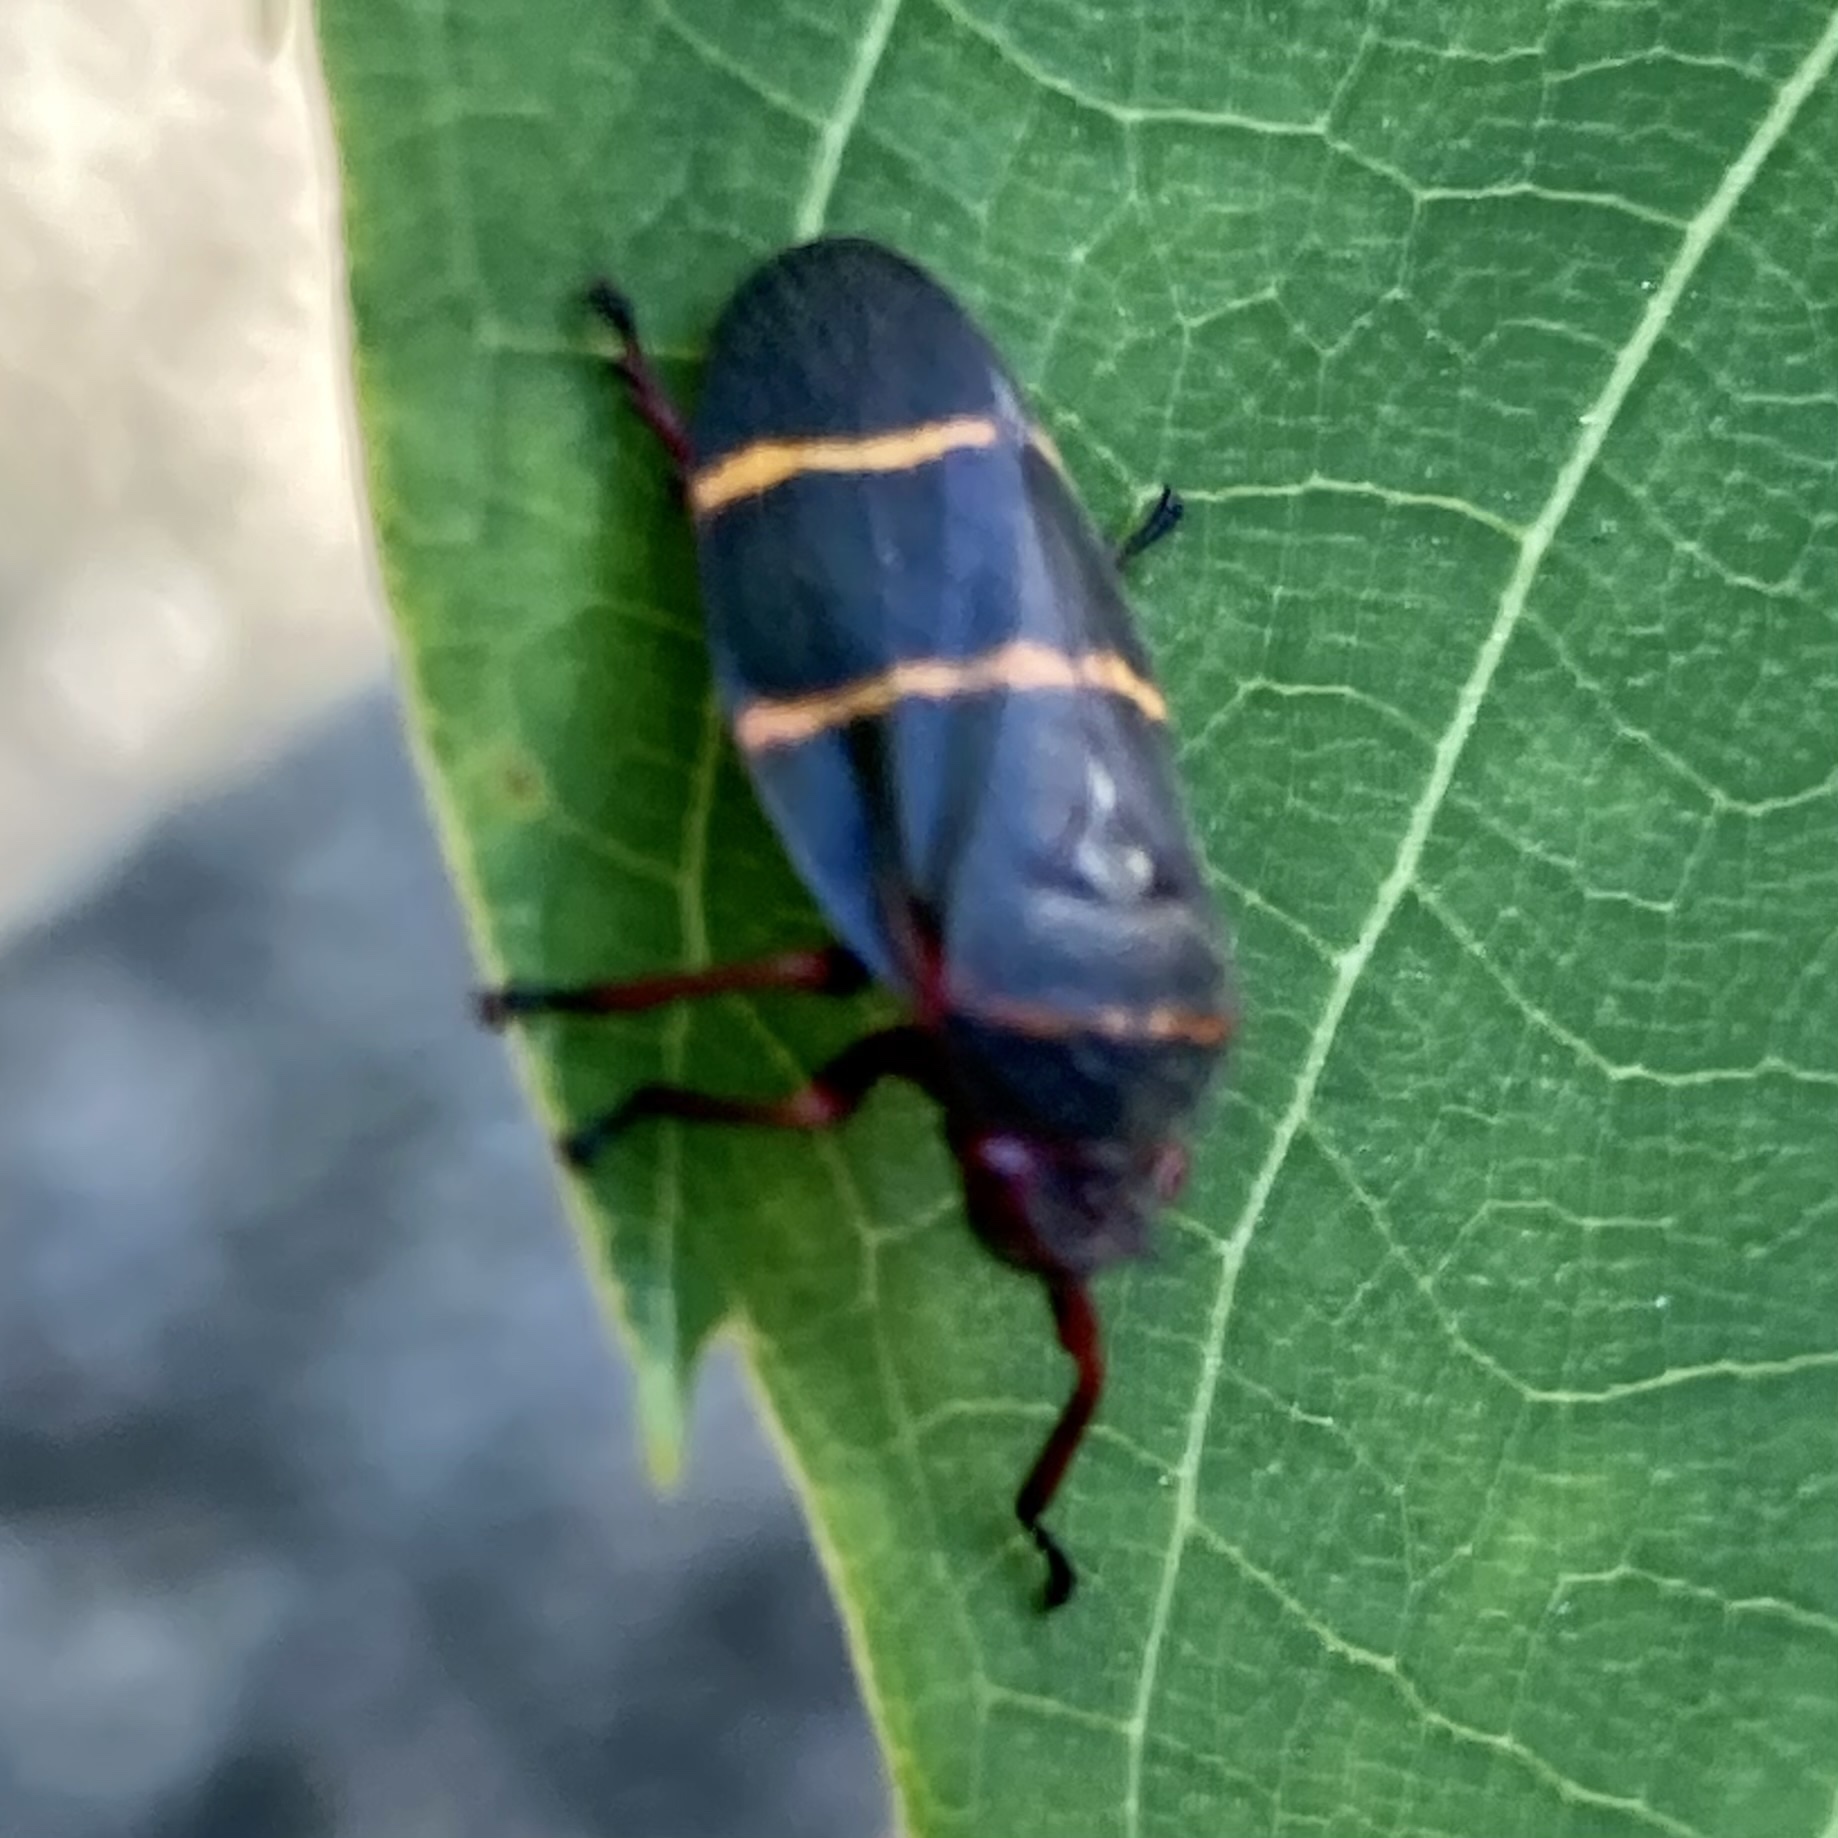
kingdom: Animalia
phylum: Arthropoda
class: Insecta
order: Hemiptera
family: Cercopidae
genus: Prosapia
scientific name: Prosapia bicincta
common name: Twolined spittlebug
